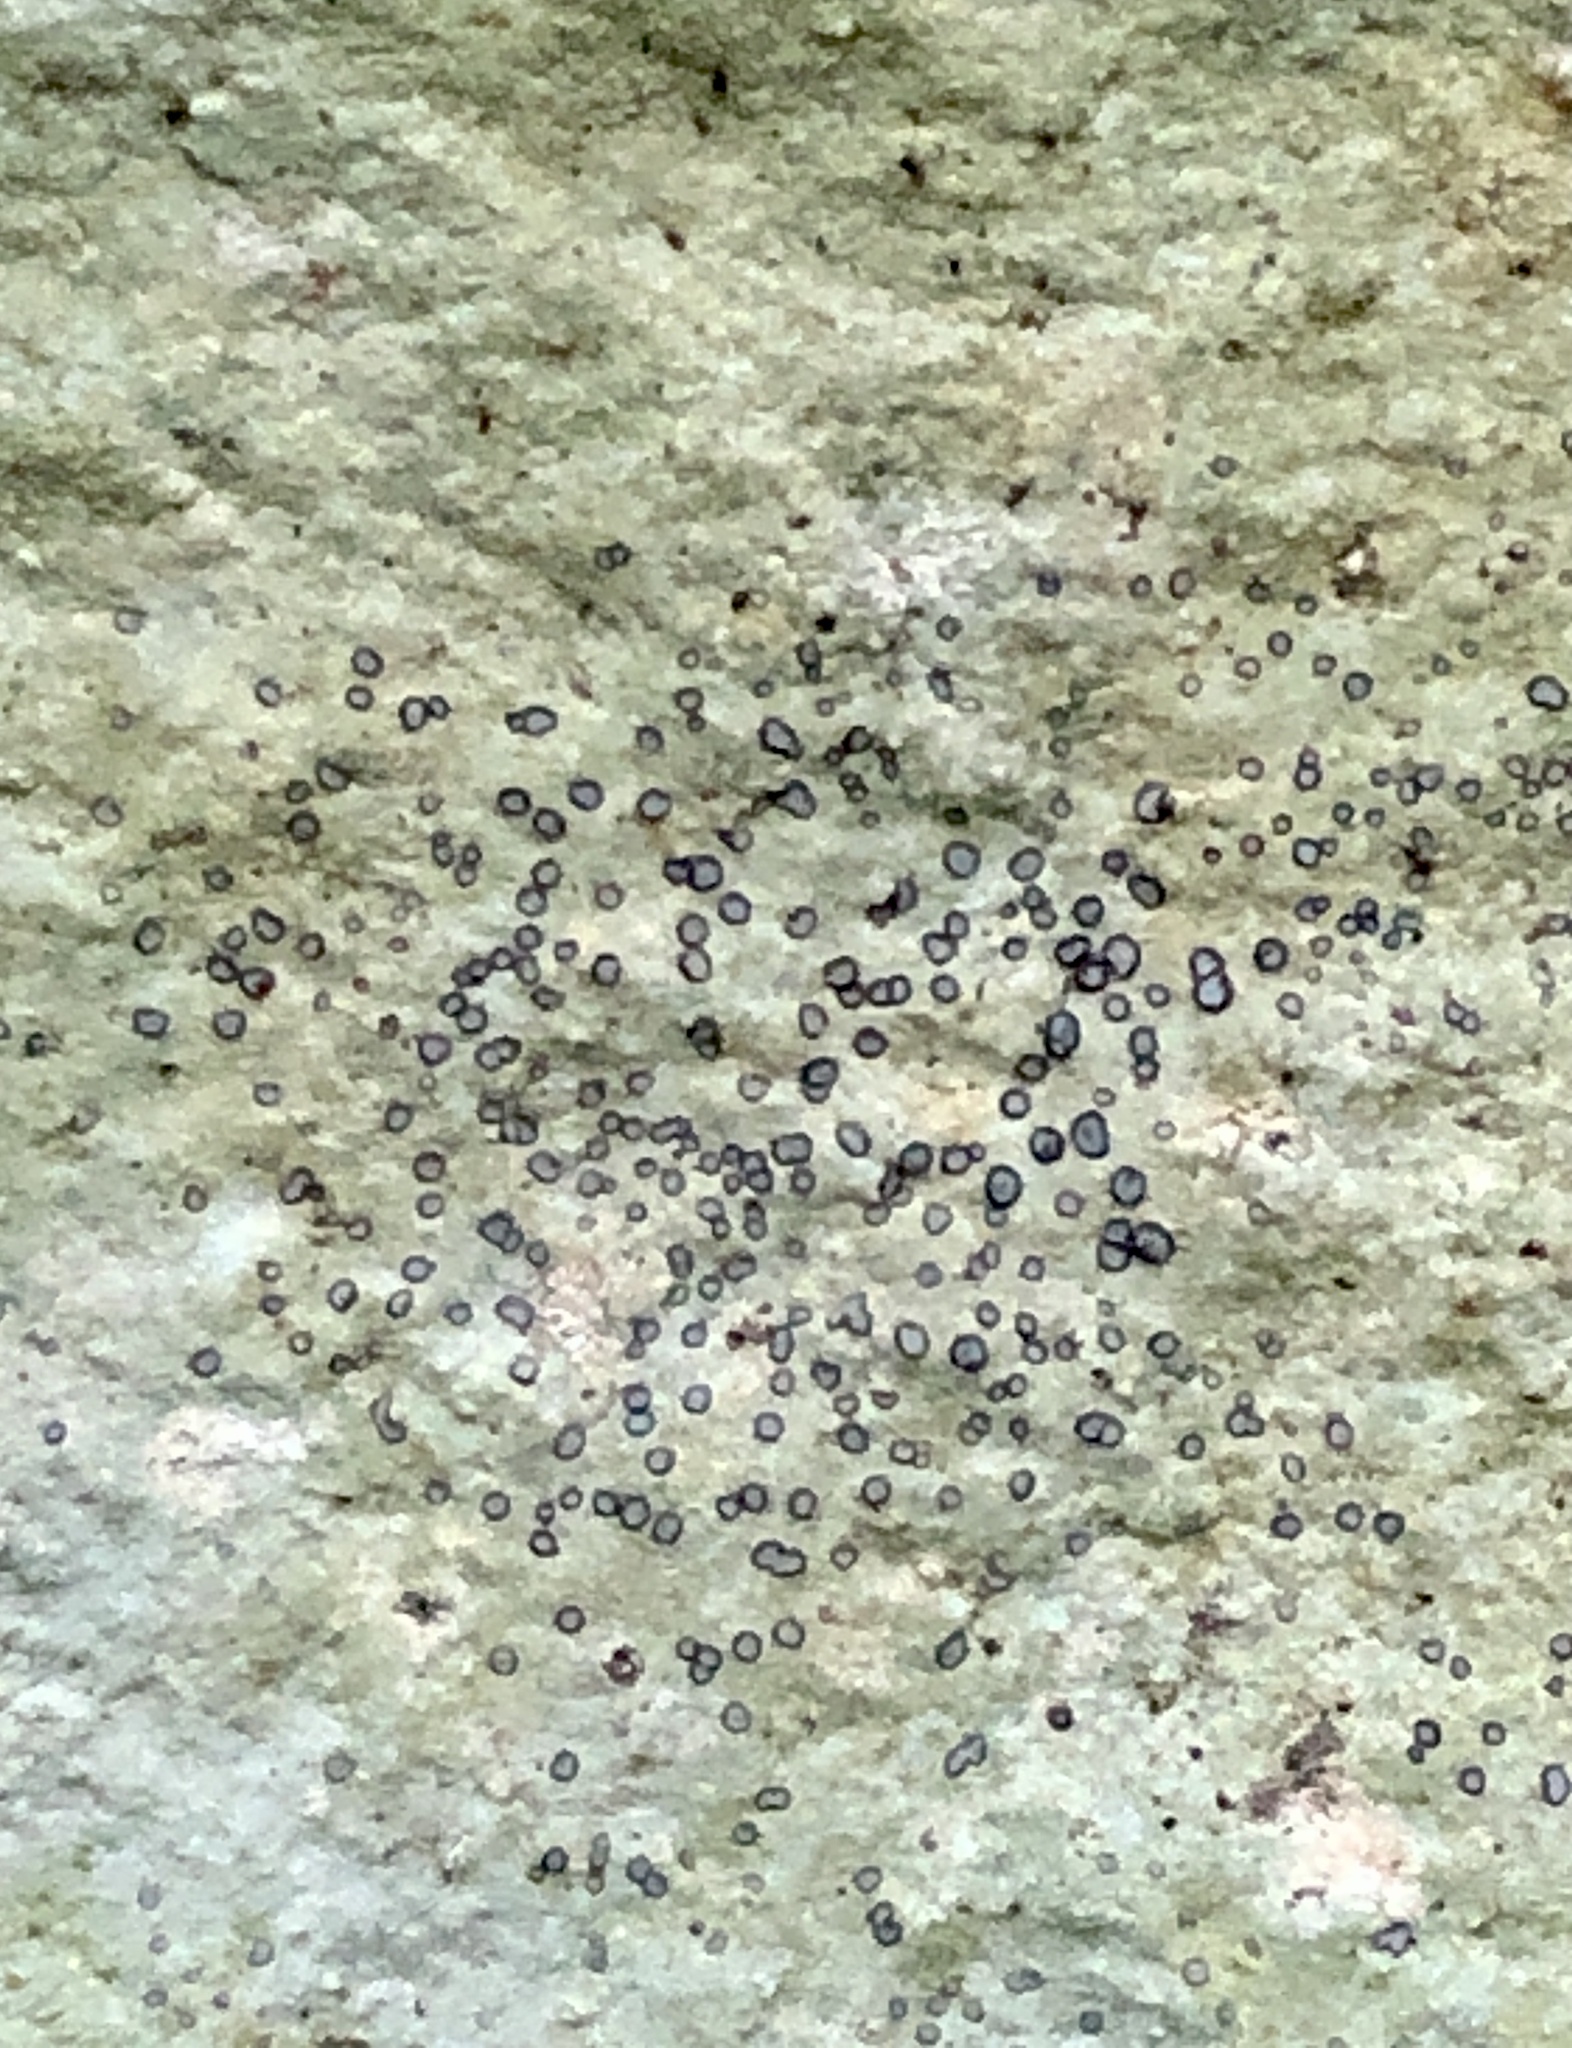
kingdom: Fungi
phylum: Ascomycota
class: Lecanoromycetes
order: Lecideales
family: Lecideaceae
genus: Porpidia
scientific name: Porpidia albocaerulescens
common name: Smokey-eyed boulder lichen
